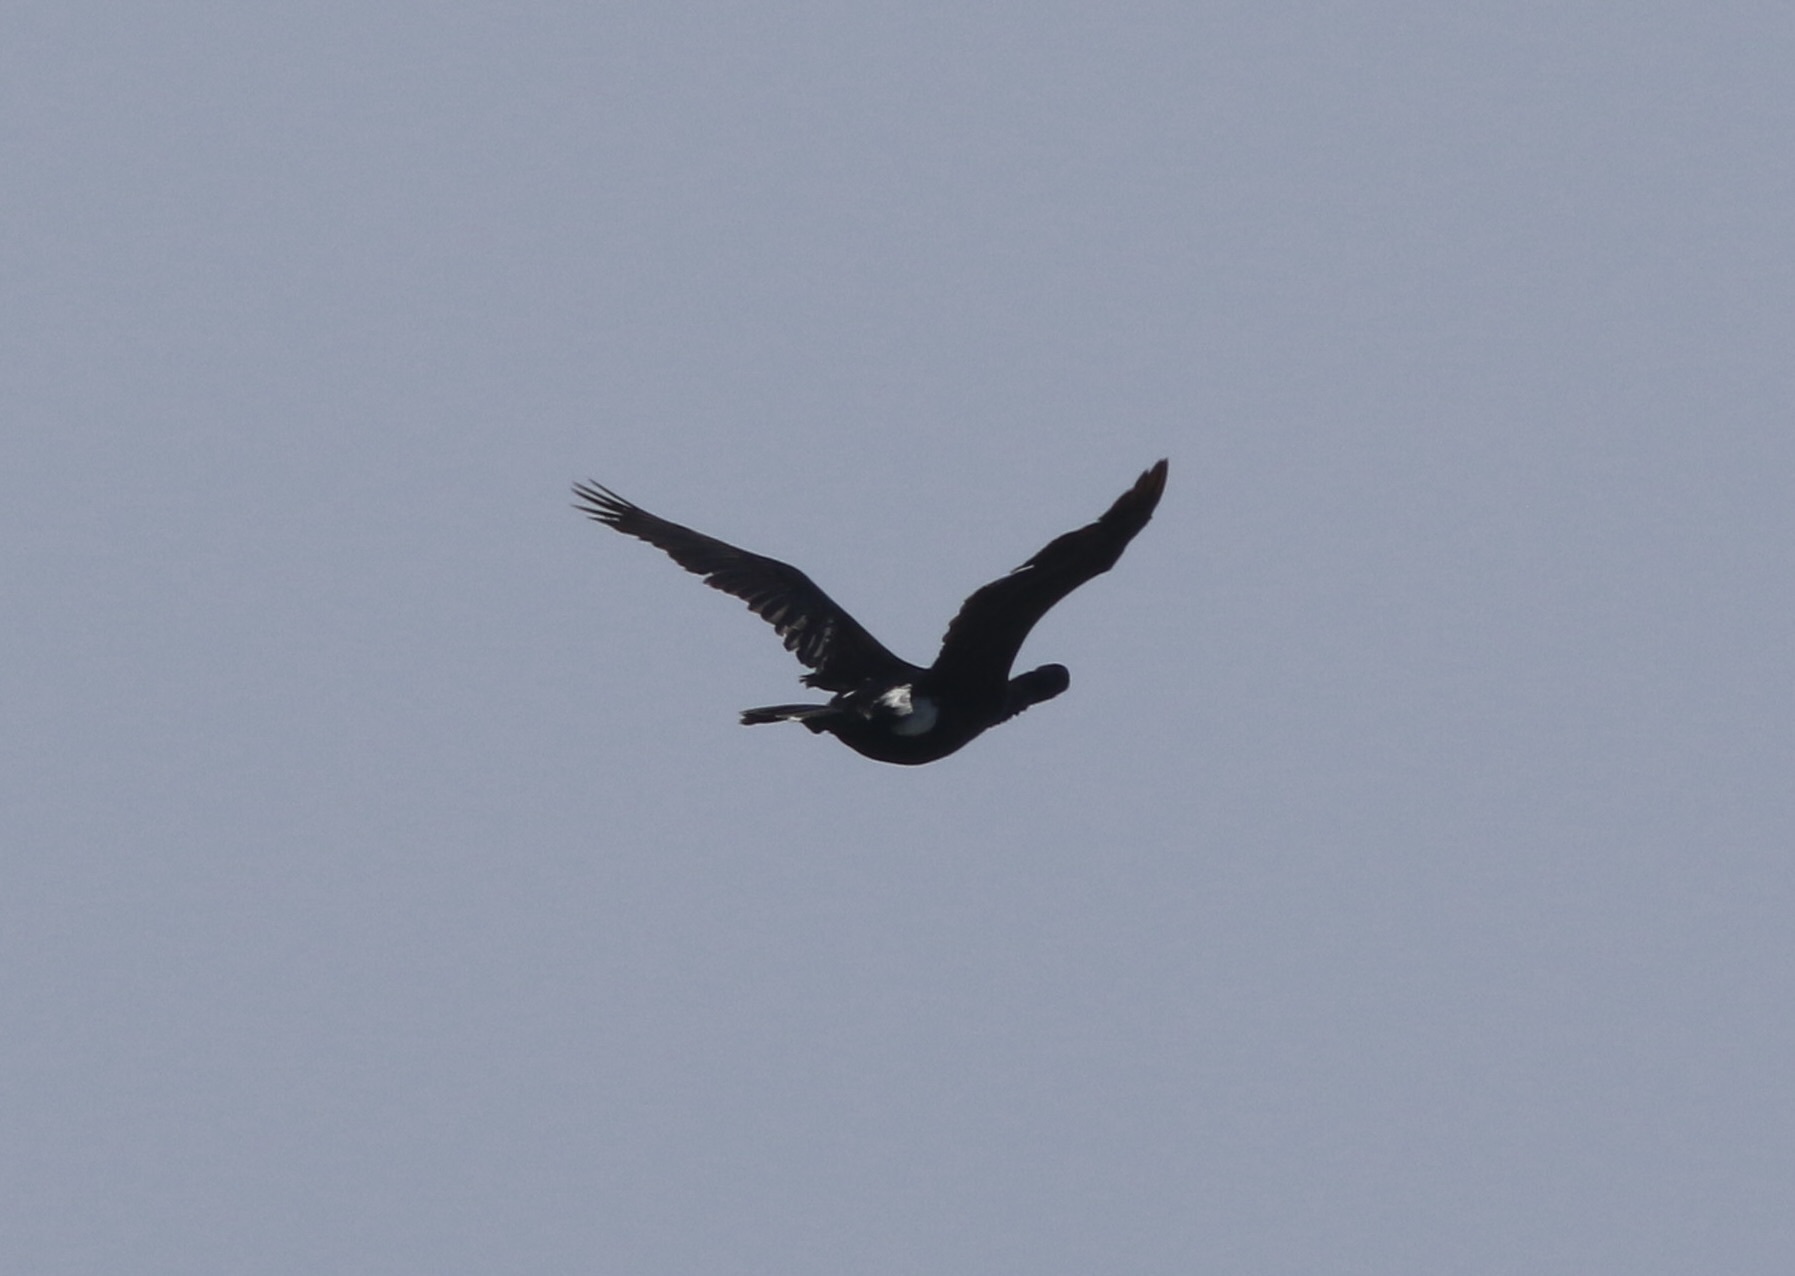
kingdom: Animalia
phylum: Chordata
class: Aves
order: Suliformes
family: Phalacrocoracidae
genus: Phalacrocorax
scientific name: Phalacrocorax pelagicus
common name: Pelagic cormorant
